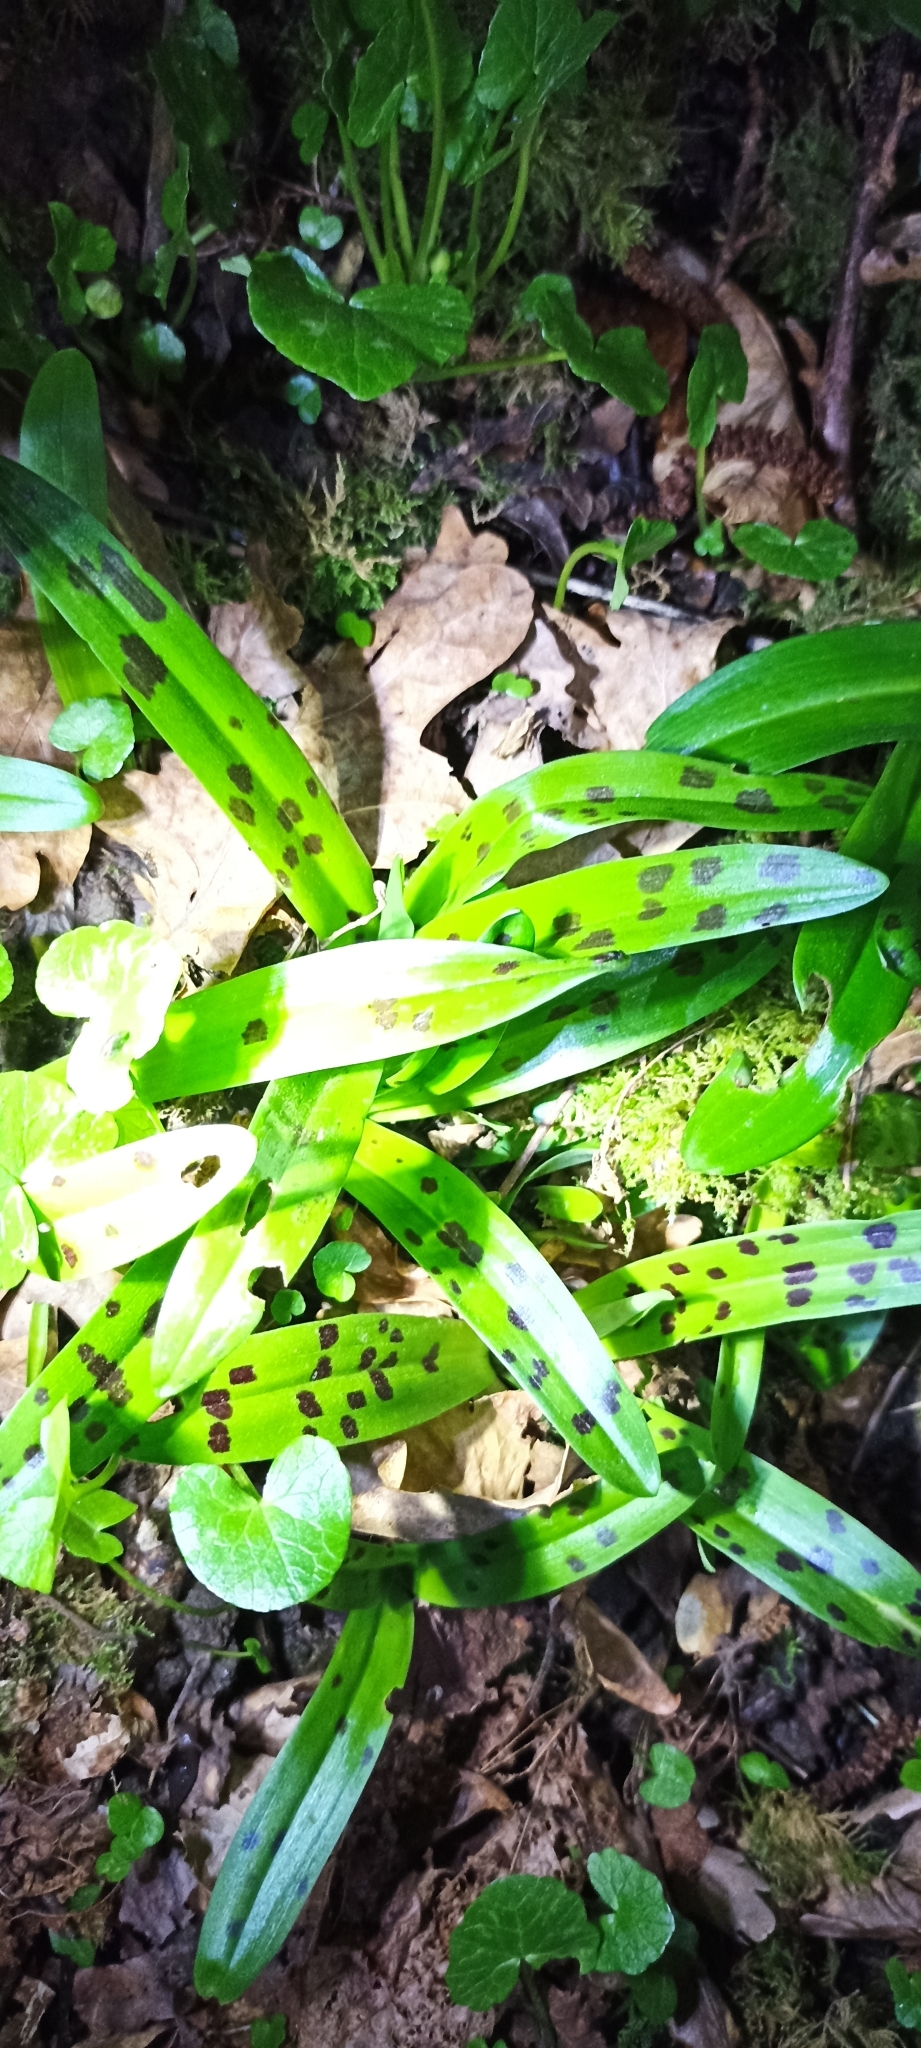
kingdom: Plantae
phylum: Tracheophyta
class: Liliopsida
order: Asparagales
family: Orchidaceae
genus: Orchis
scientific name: Orchis mascula
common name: Early-purple orchid
